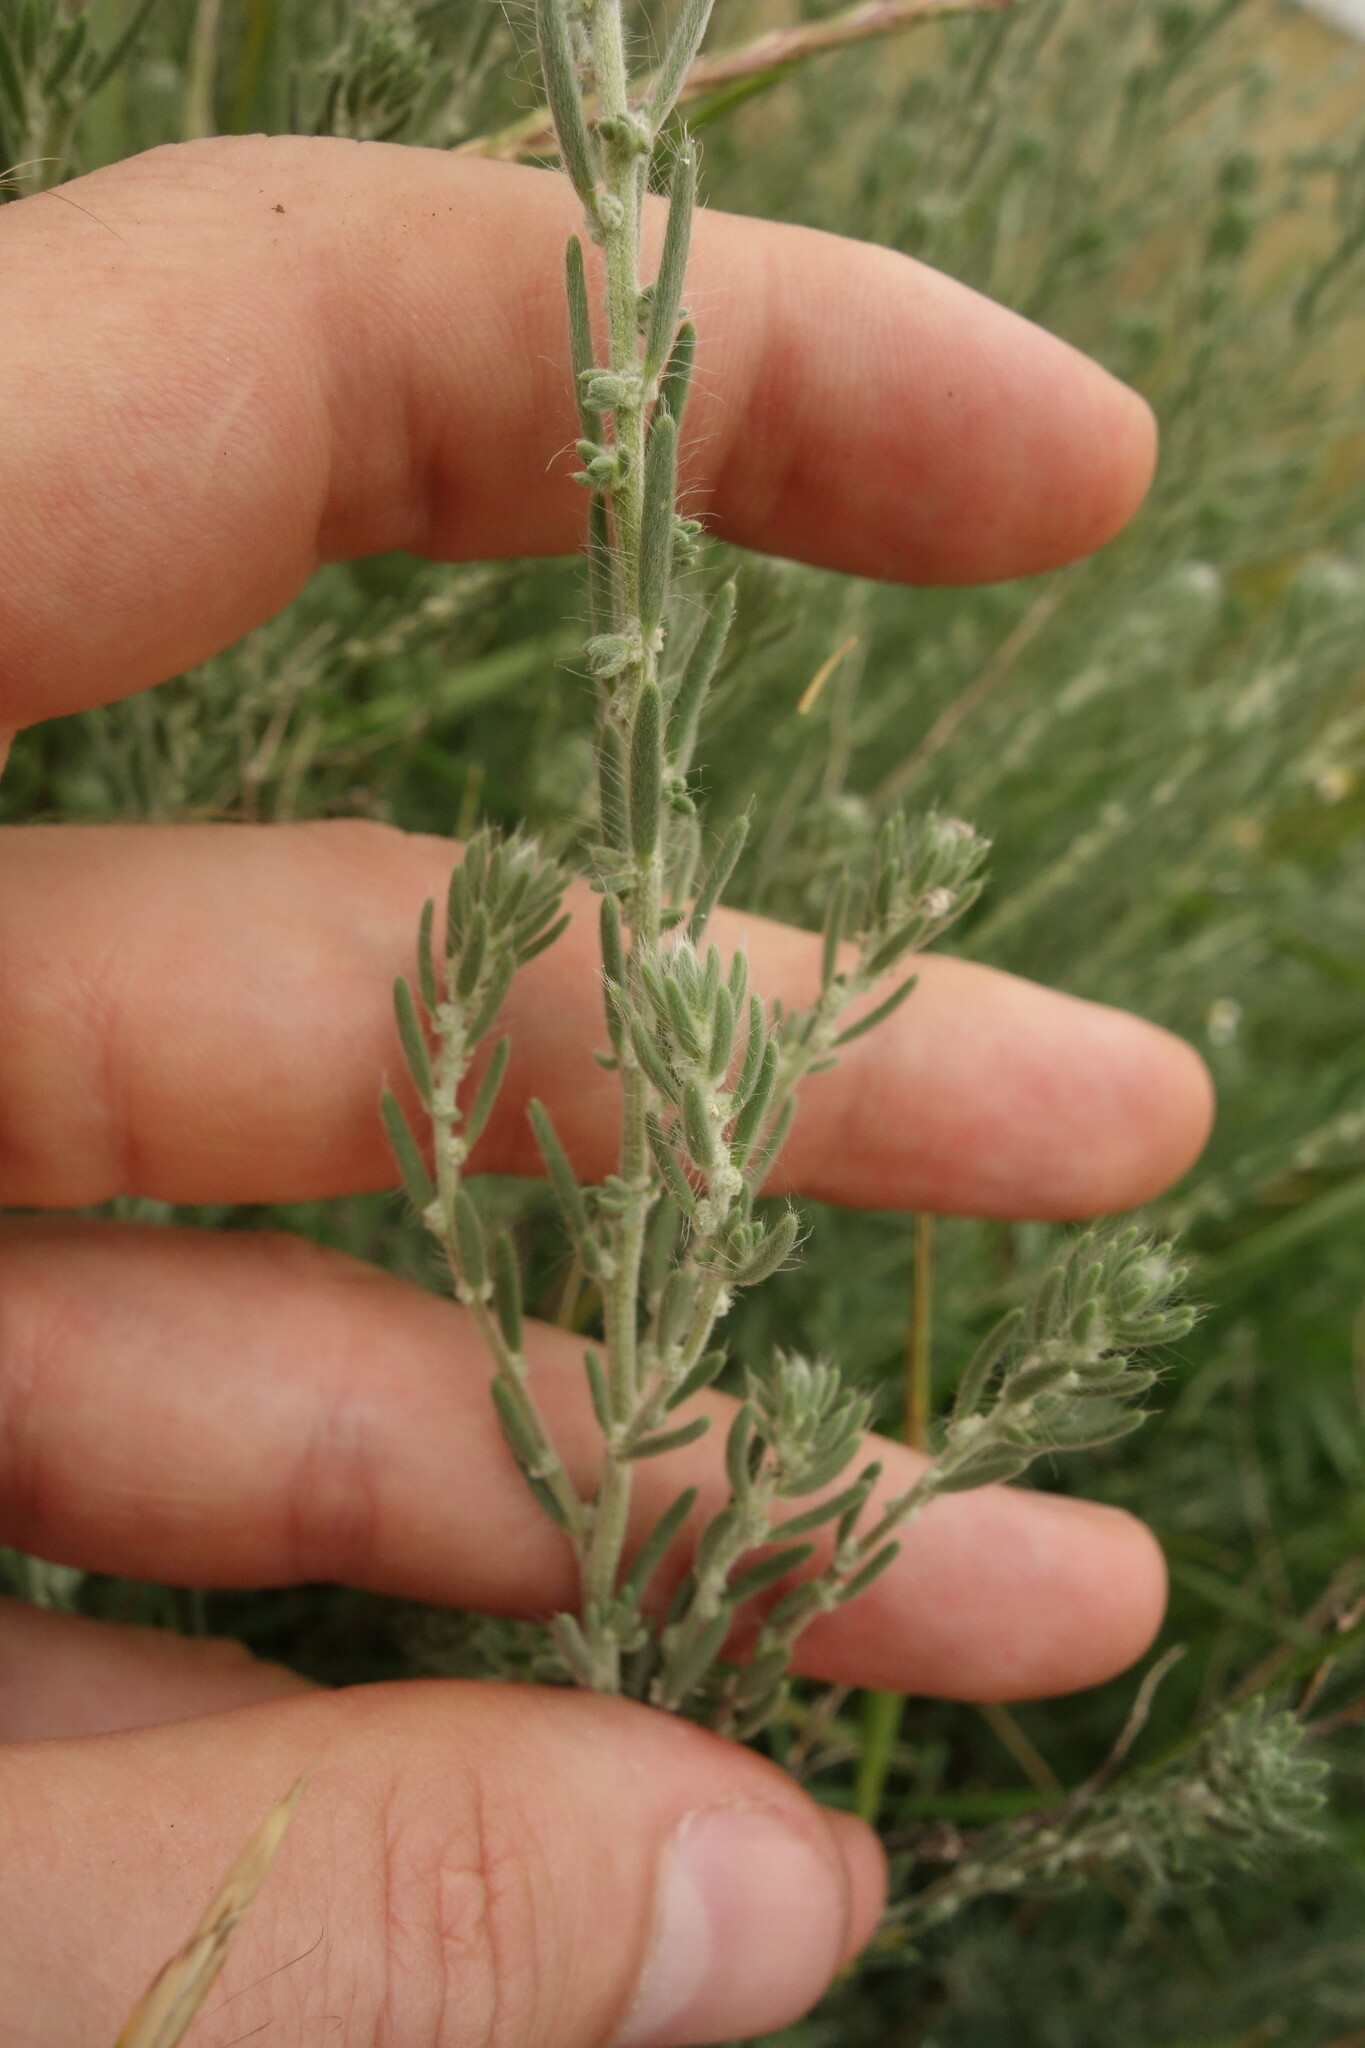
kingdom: Plantae
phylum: Tracheophyta
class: Magnoliopsida
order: Caryophyllales
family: Amaranthaceae
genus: Sedobassia
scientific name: Sedobassia sedoides
